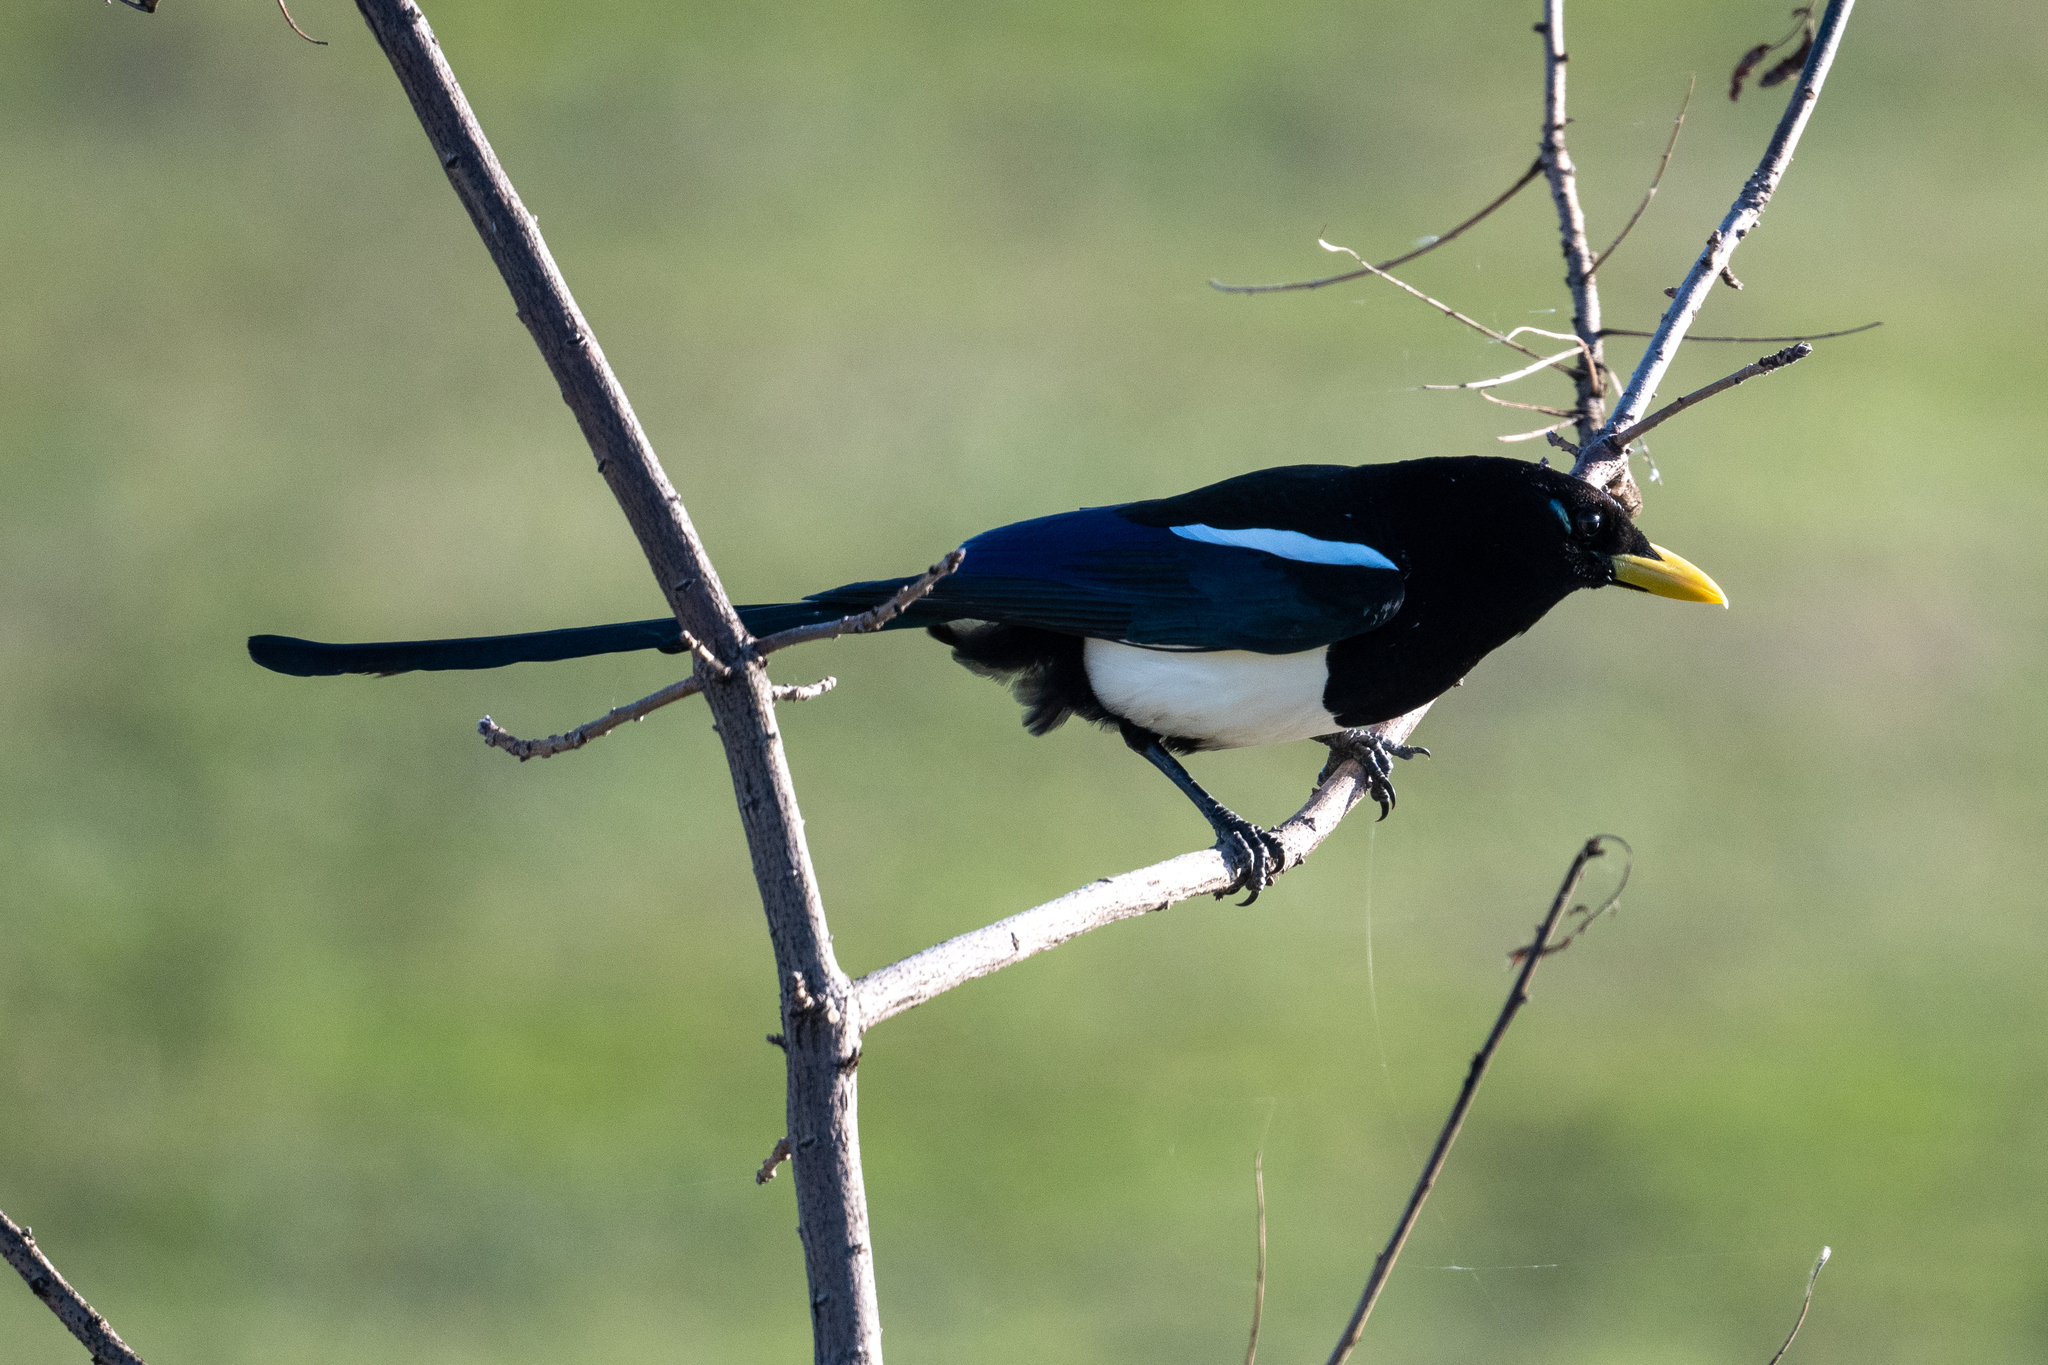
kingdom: Animalia
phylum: Chordata
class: Aves
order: Passeriformes
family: Corvidae
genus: Pica
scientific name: Pica nuttalli
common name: Yellow-billed magpie
